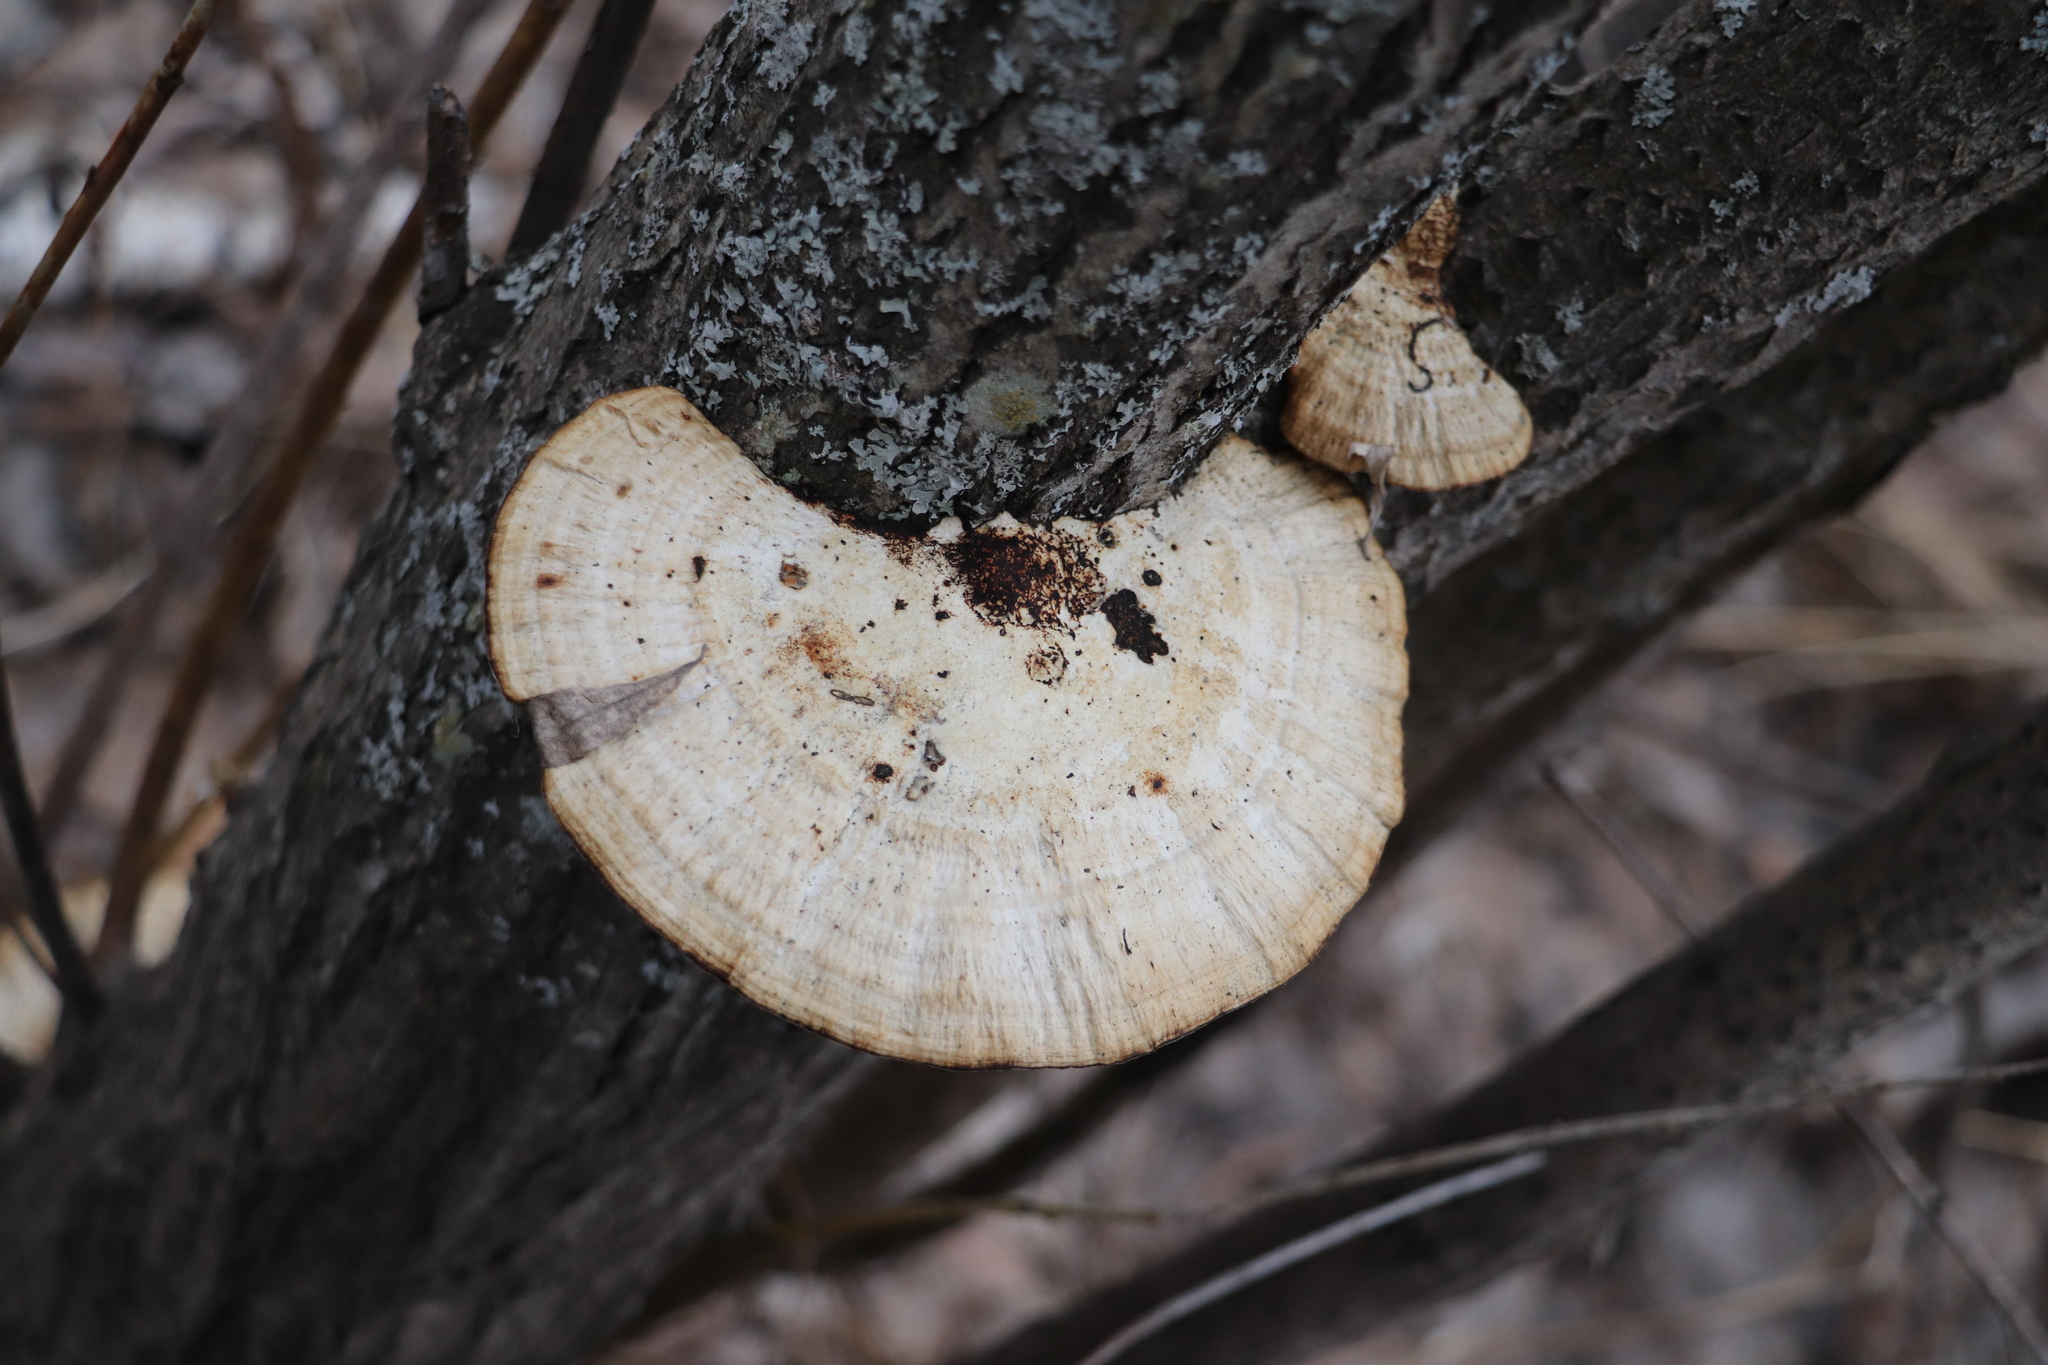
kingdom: Fungi
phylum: Basidiomycota
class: Agaricomycetes
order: Polyporales
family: Polyporaceae
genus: Daedaleopsis
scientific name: Daedaleopsis confragosa
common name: Blushing bracket
